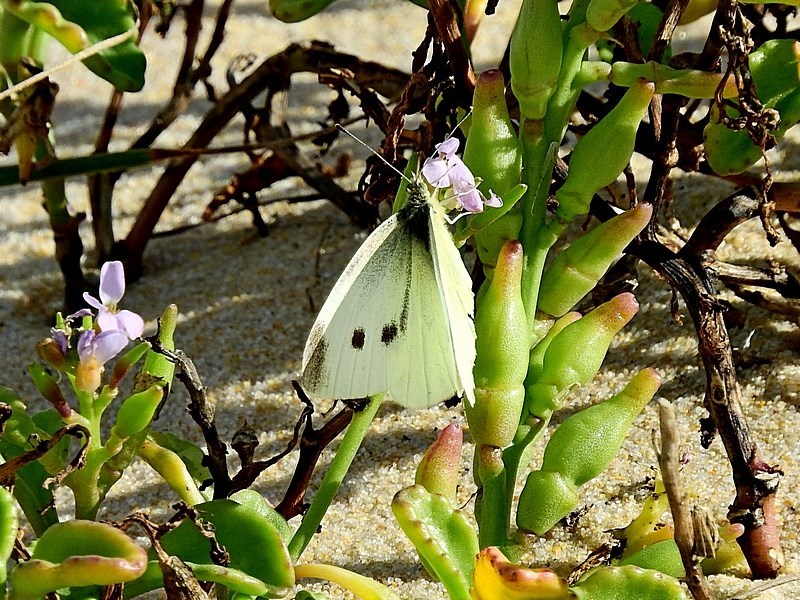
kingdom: Animalia
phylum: Arthropoda
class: Insecta
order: Lepidoptera
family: Pieridae
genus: Pieris
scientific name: Pieris rapae
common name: Small white
